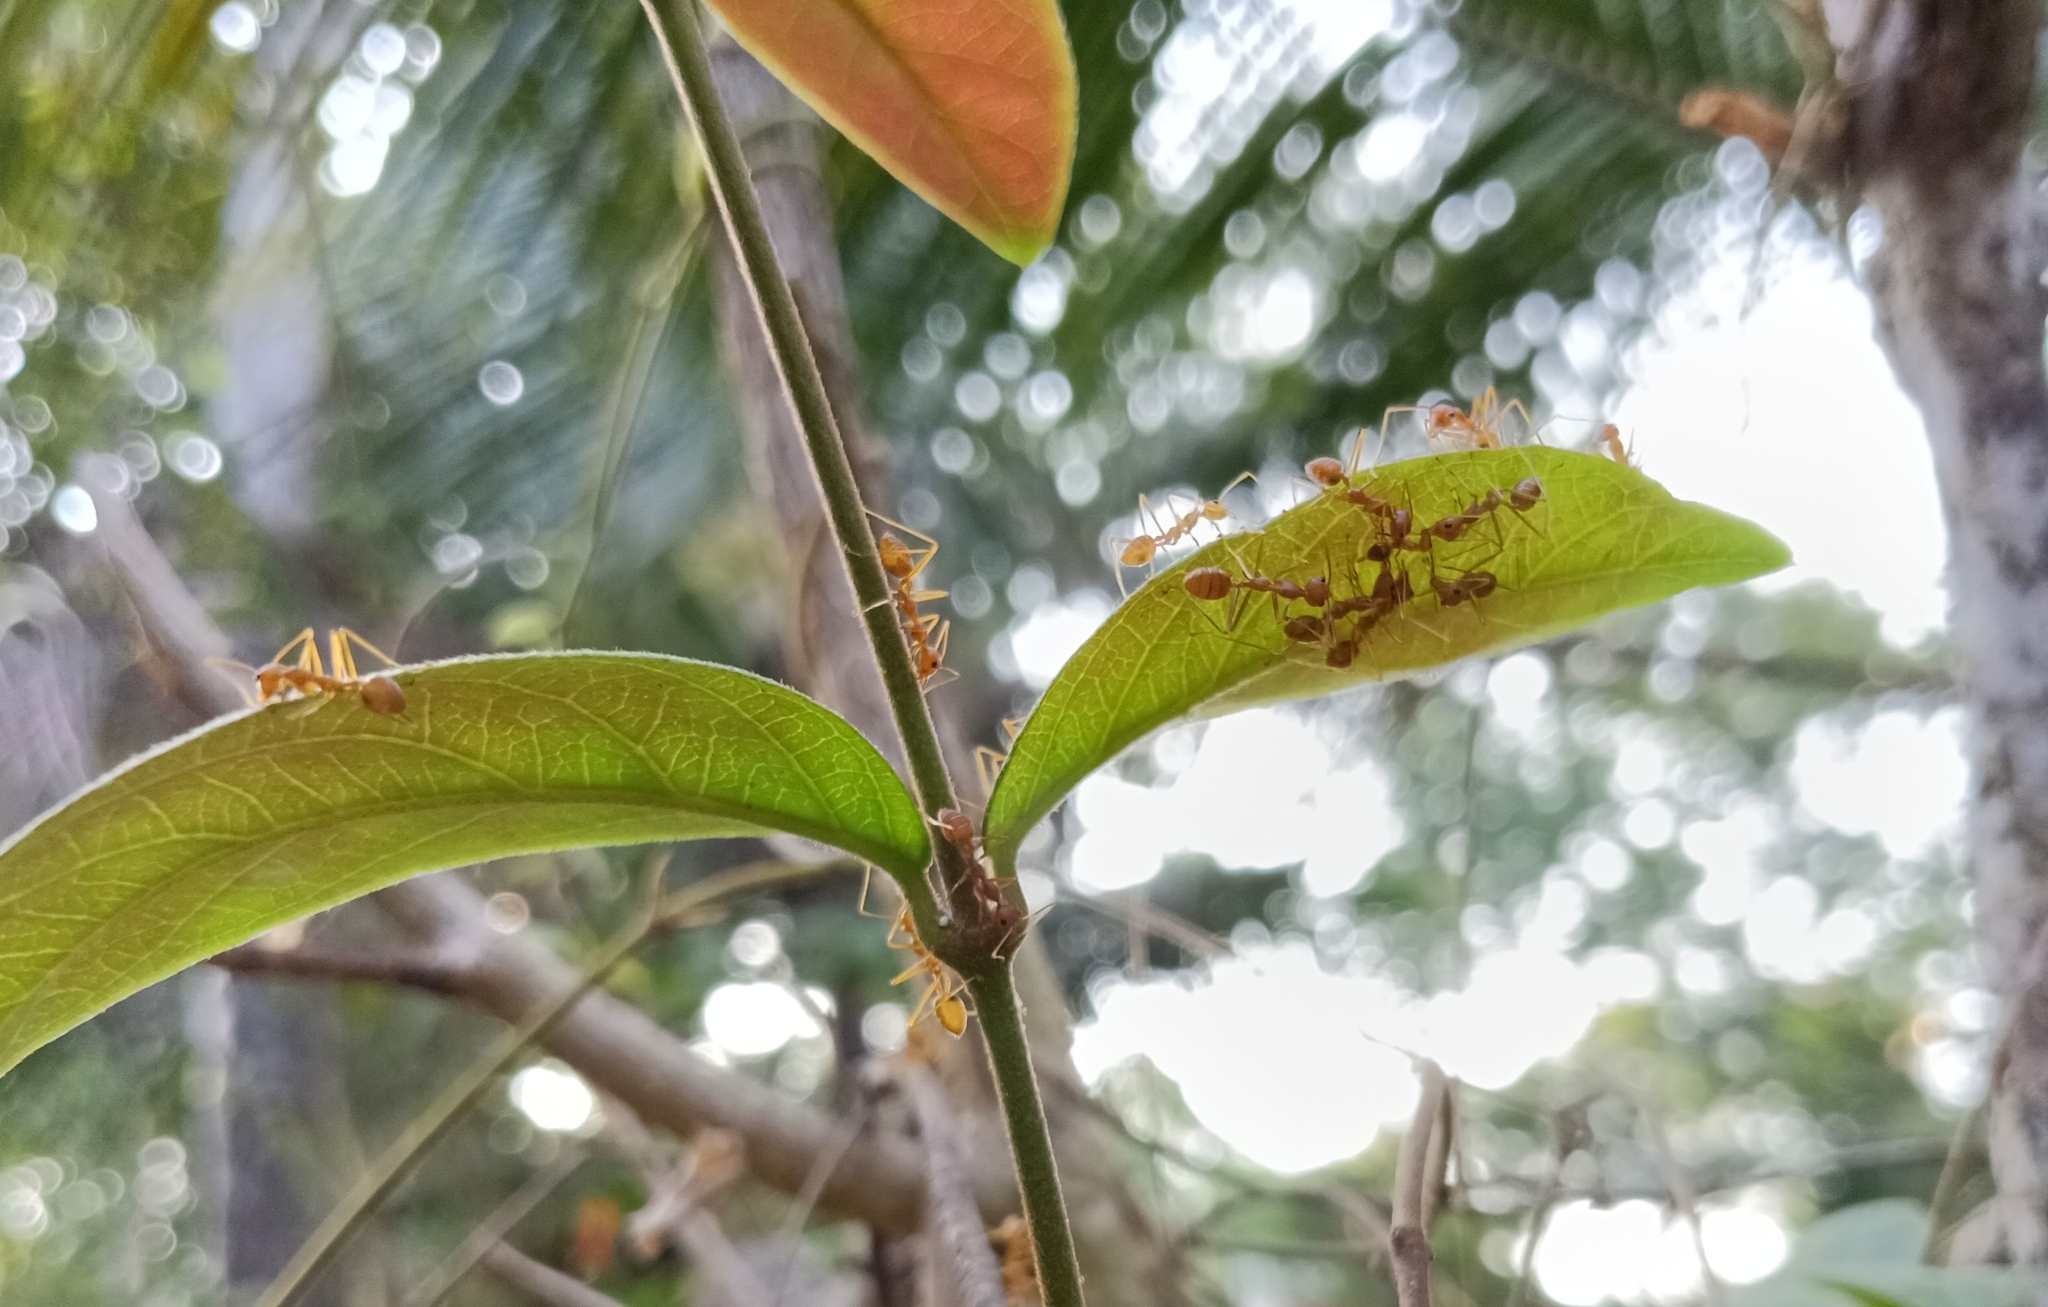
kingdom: Animalia
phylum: Arthropoda
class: Insecta
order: Hymenoptera
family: Formicidae
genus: Oecophylla
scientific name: Oecophylla smaragdina
